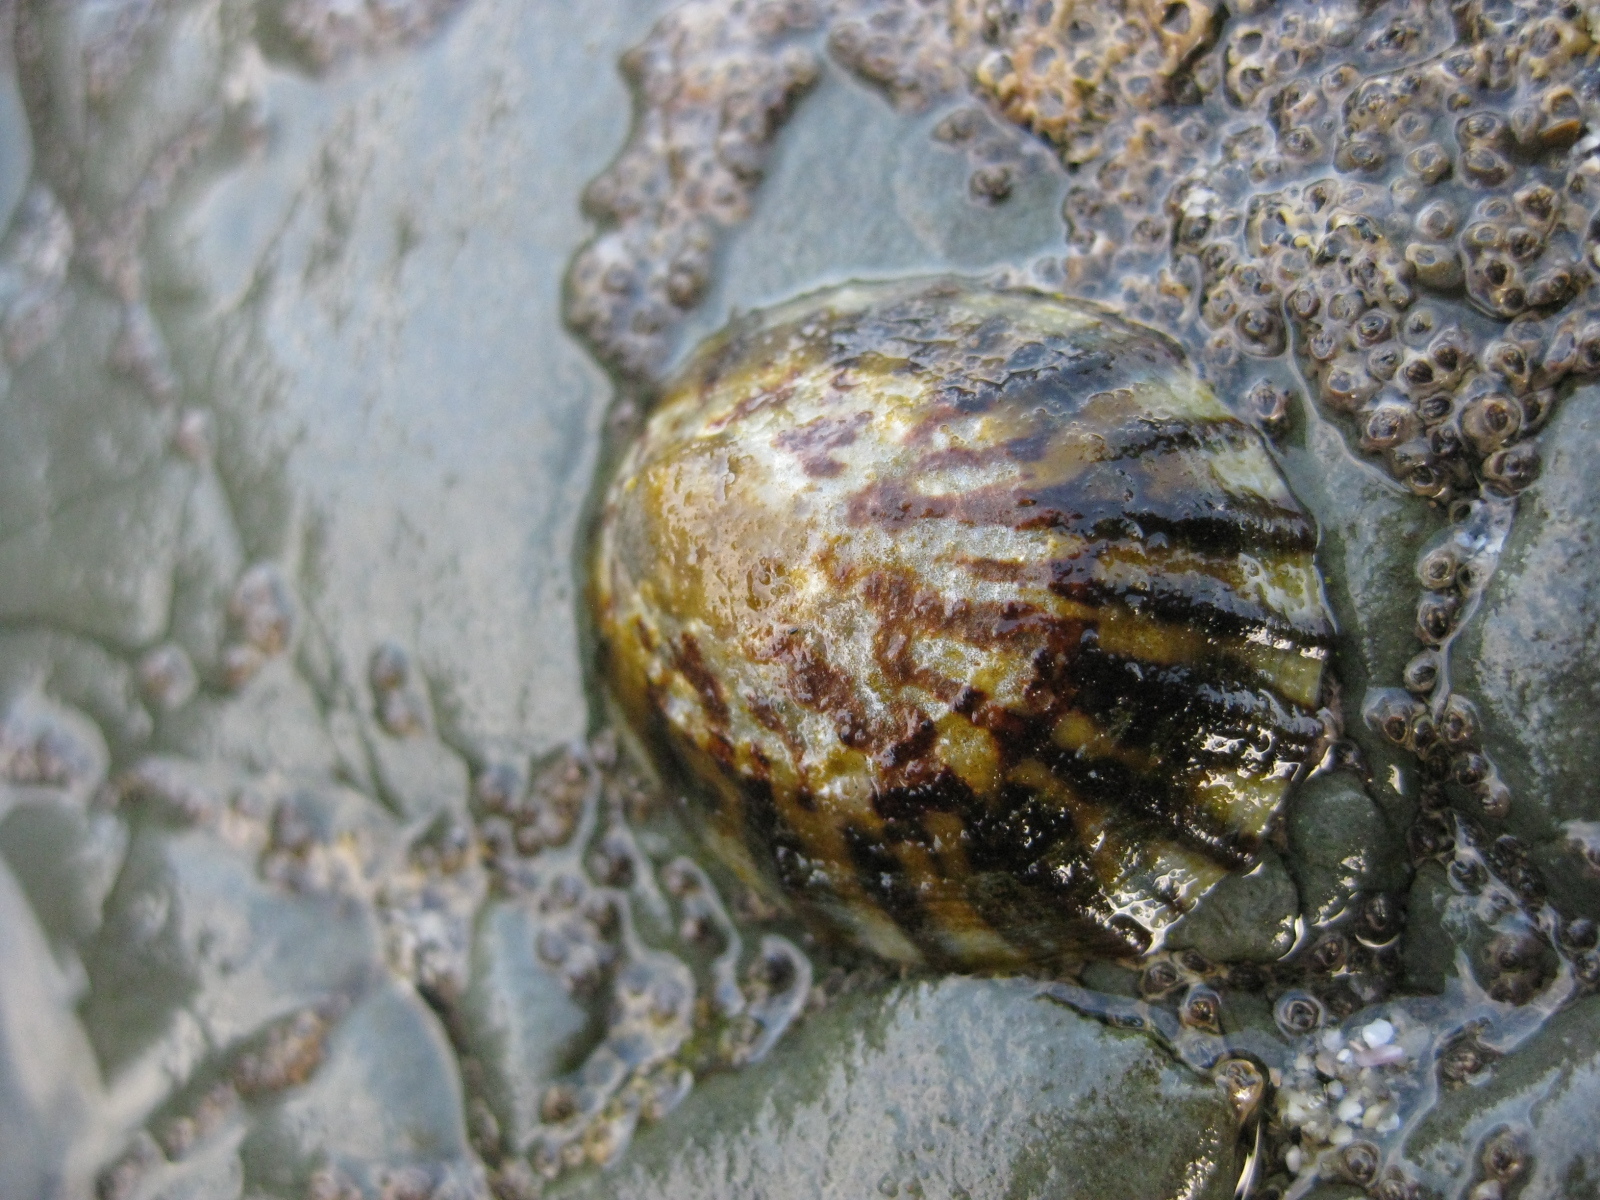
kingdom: Animalia
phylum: Mollusca
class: Gastropoda
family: Nacellidae
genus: Cellana
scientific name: Cellana radians
